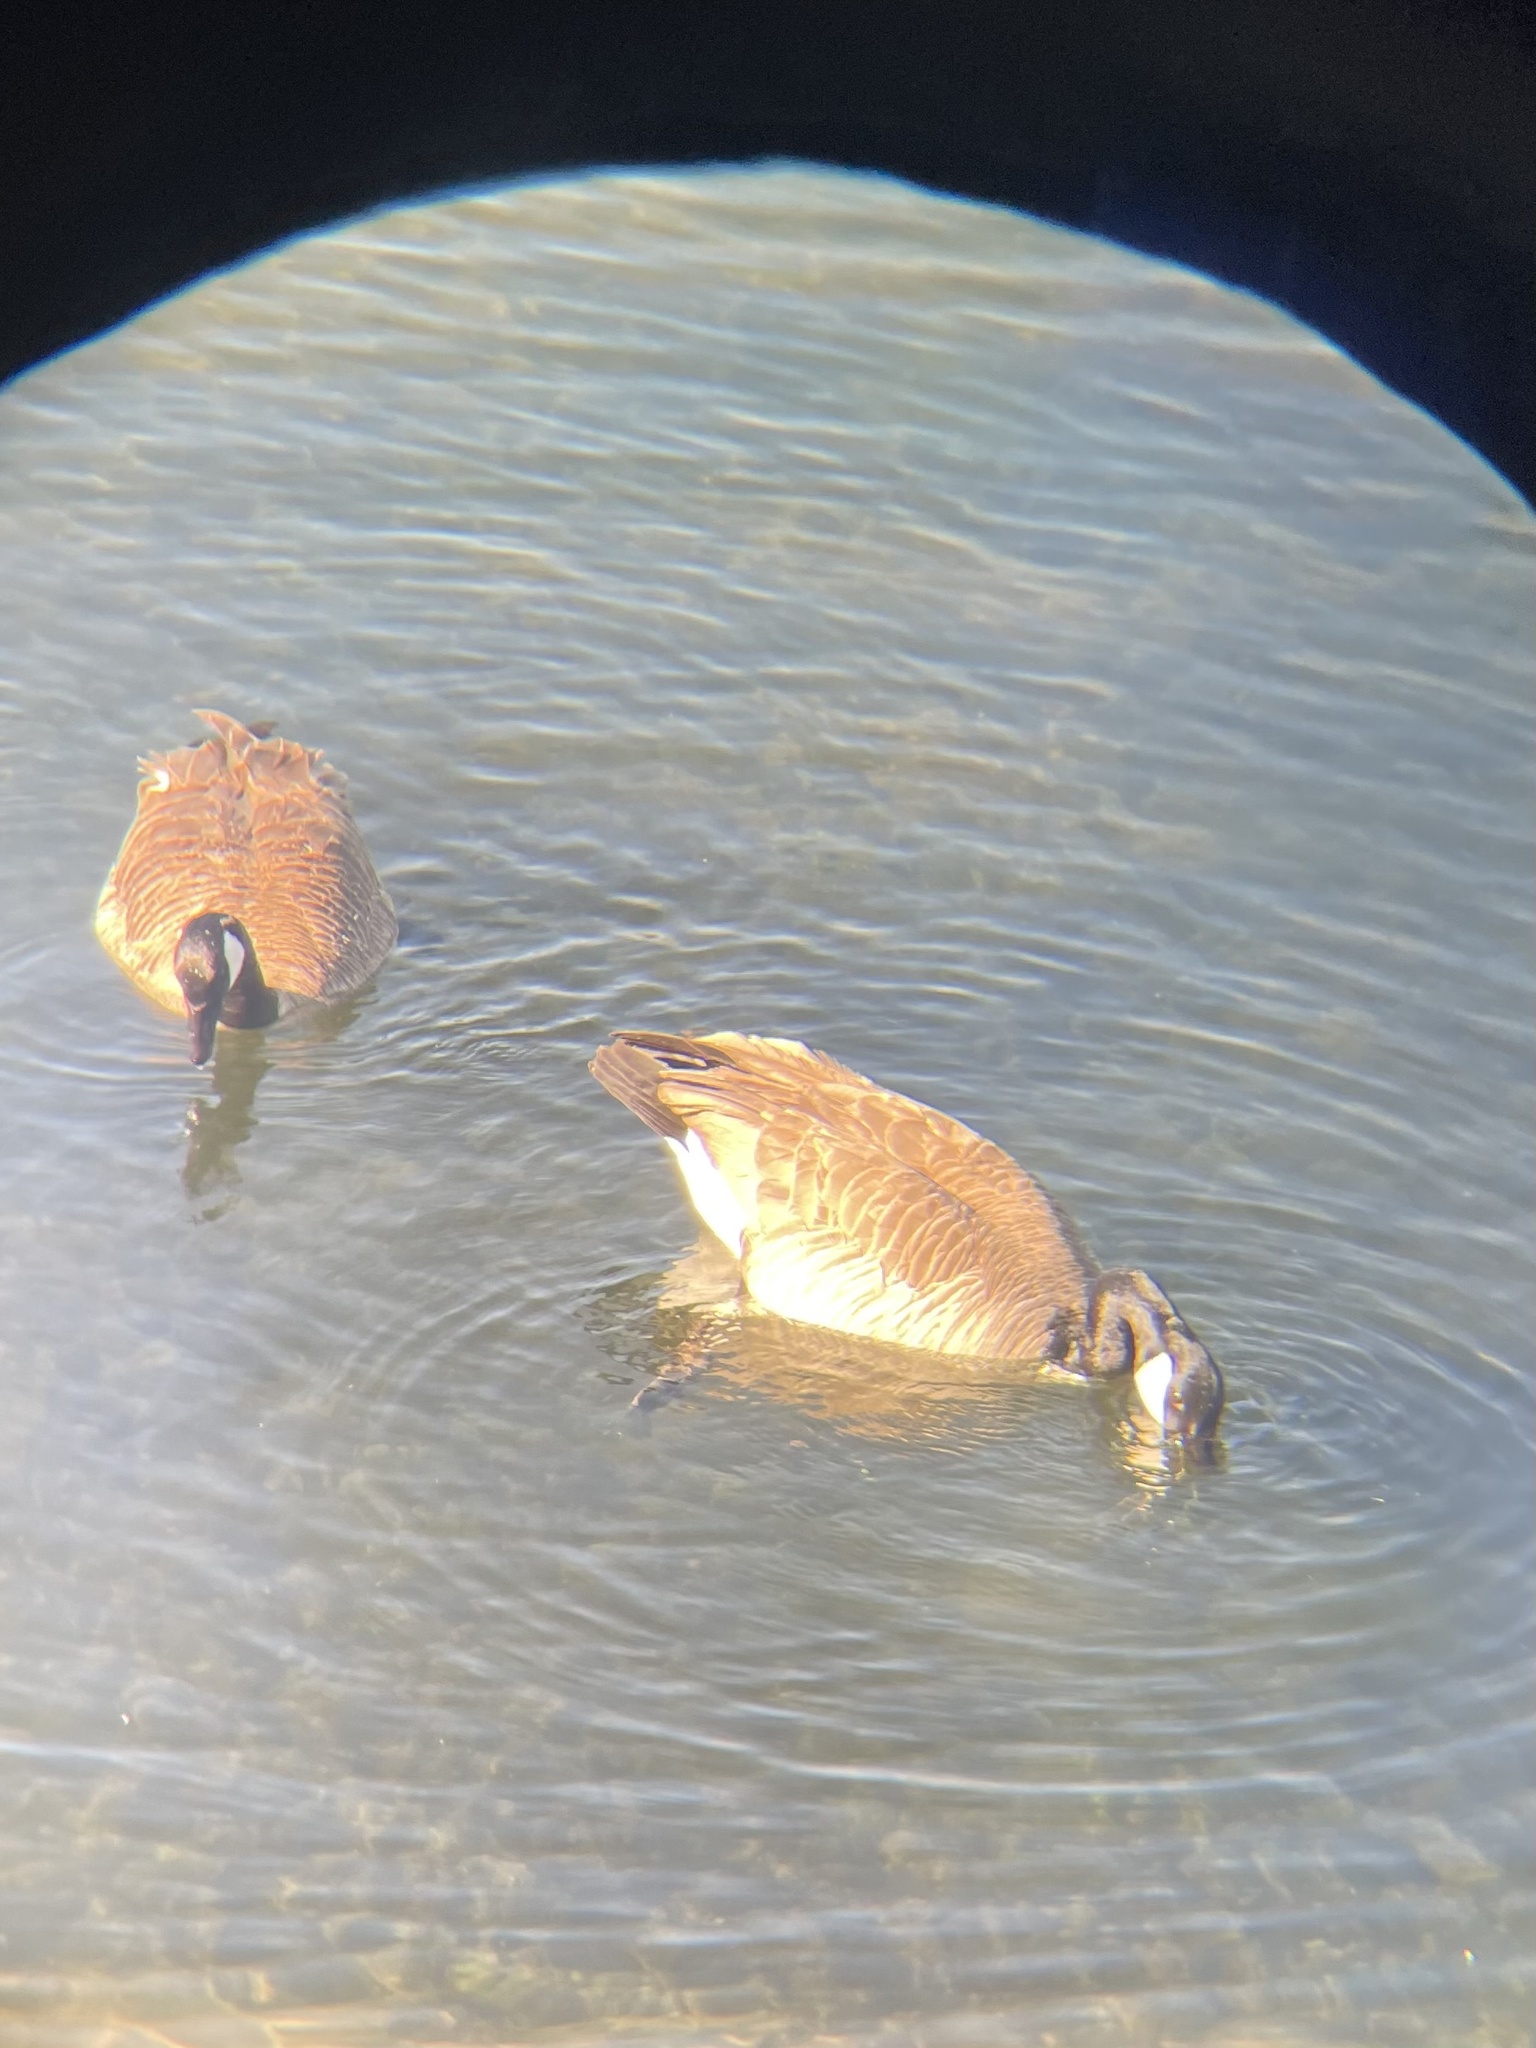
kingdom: Animalia
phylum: Chordata
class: Aves
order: Anseriformes
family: Anatidae
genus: Branta
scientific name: Branta canadensis
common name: Canada goose
